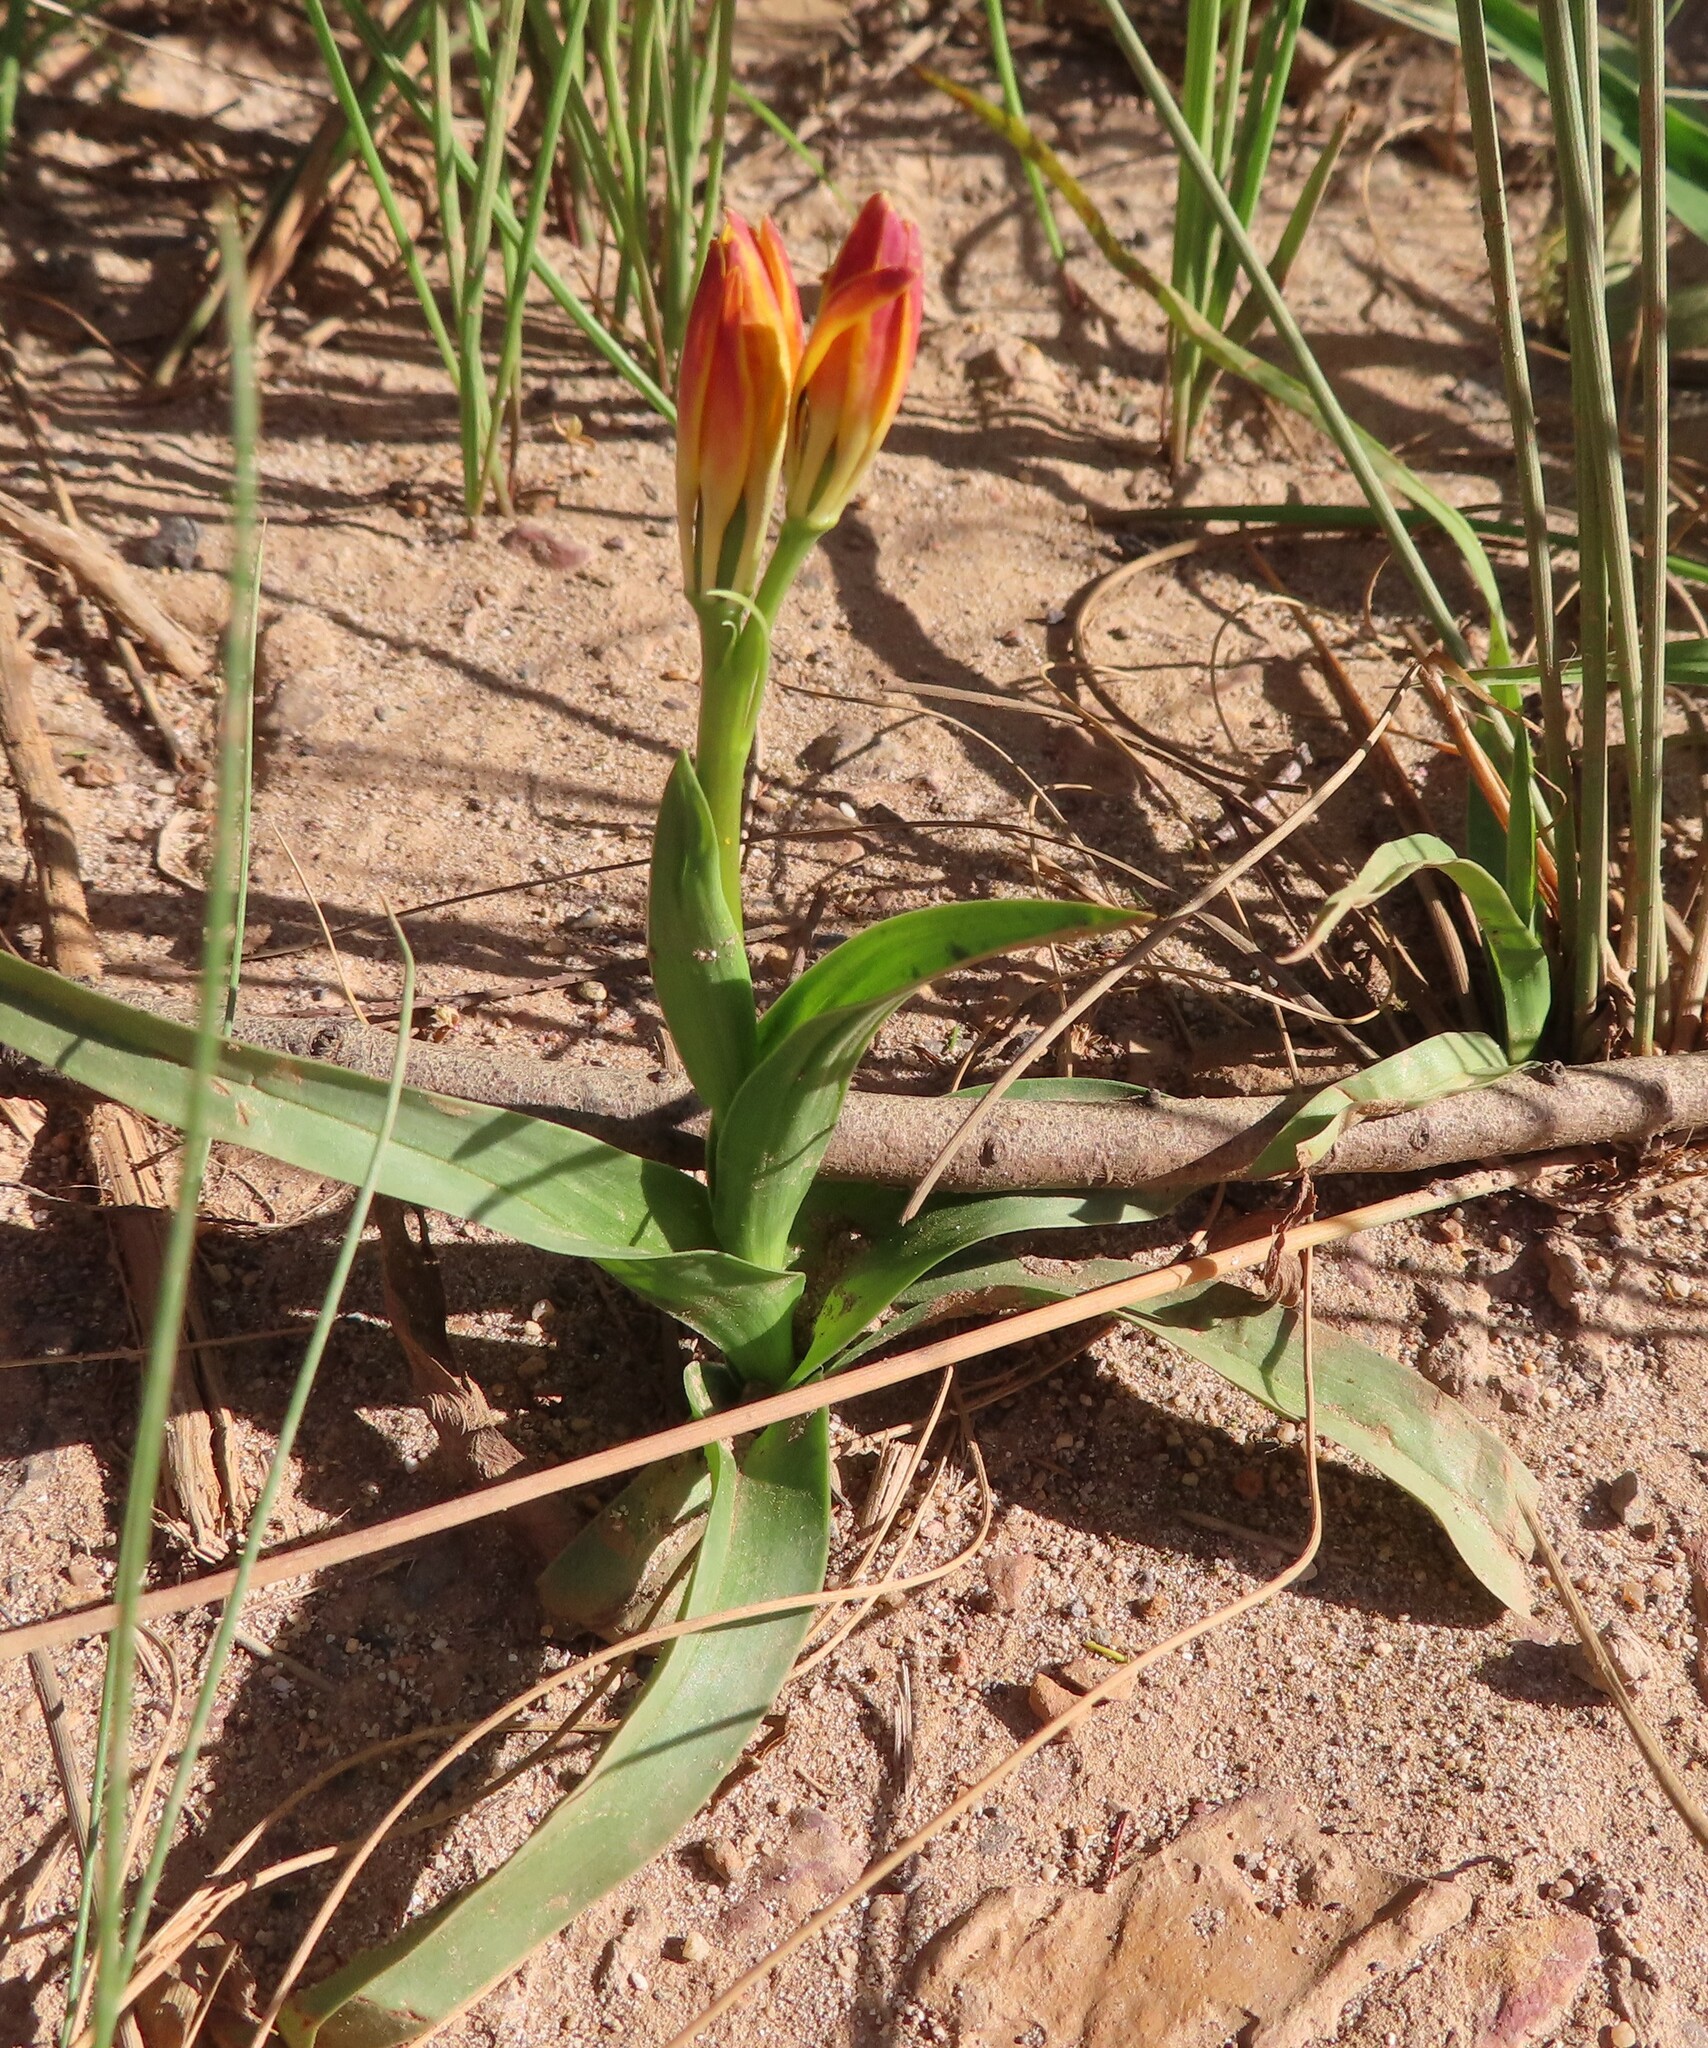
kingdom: Plantae
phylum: Tracheophyta
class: Liliopsida
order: Liliales
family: Colchicaceae
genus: Baeometra
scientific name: Baeometra uniflora
